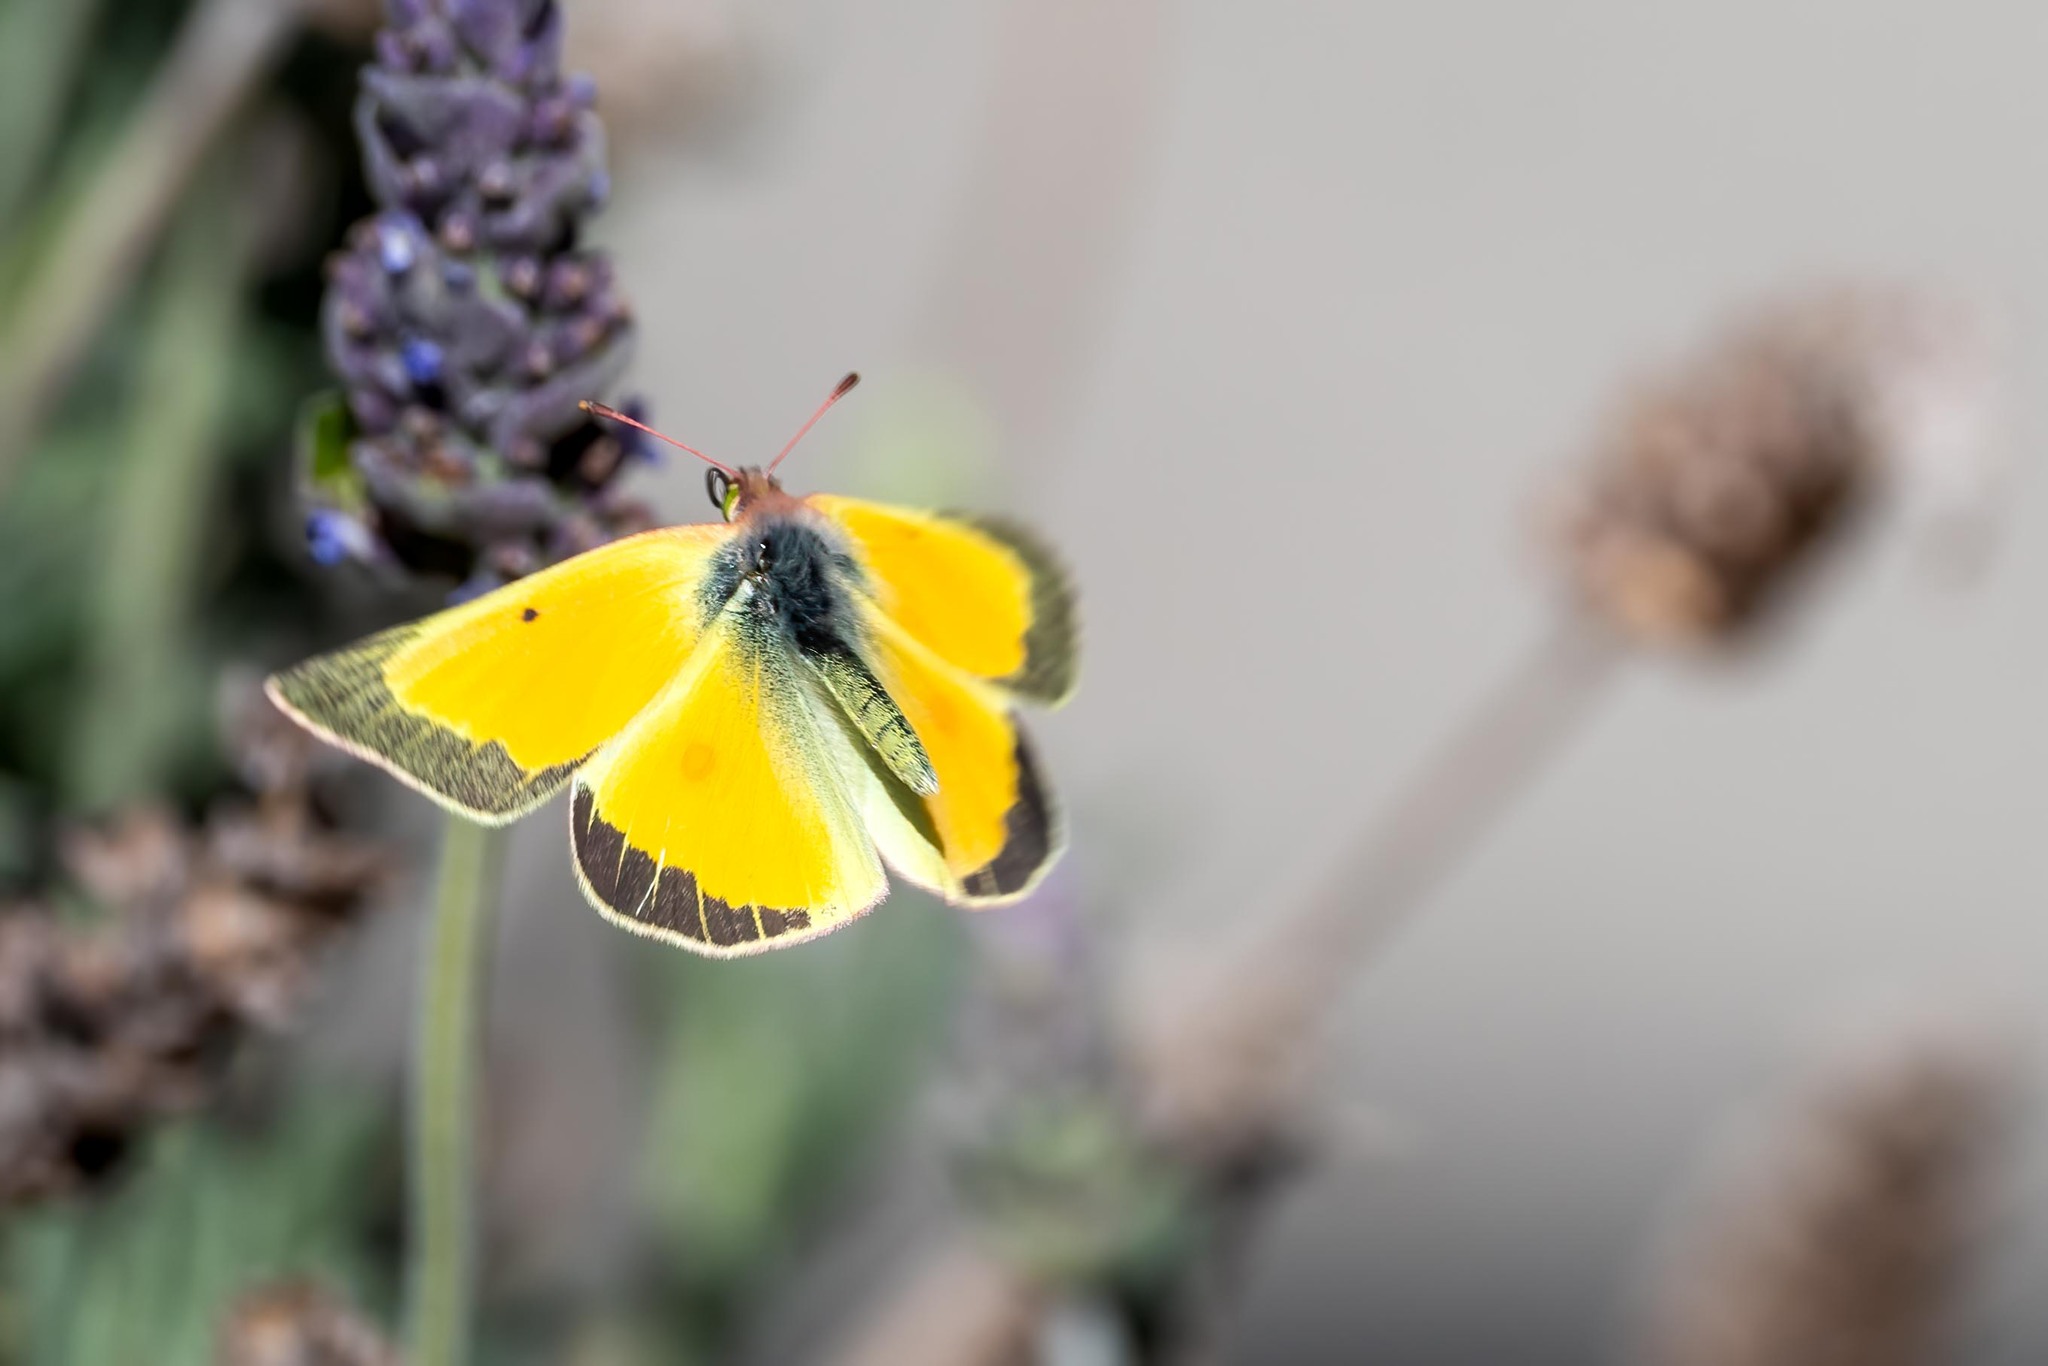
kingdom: Animalia
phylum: Arthropoda
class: Insecta
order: Lepidoptera
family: Pieridae
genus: Colias
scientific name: Colias eurytheme
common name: Alfalfa butterfly
